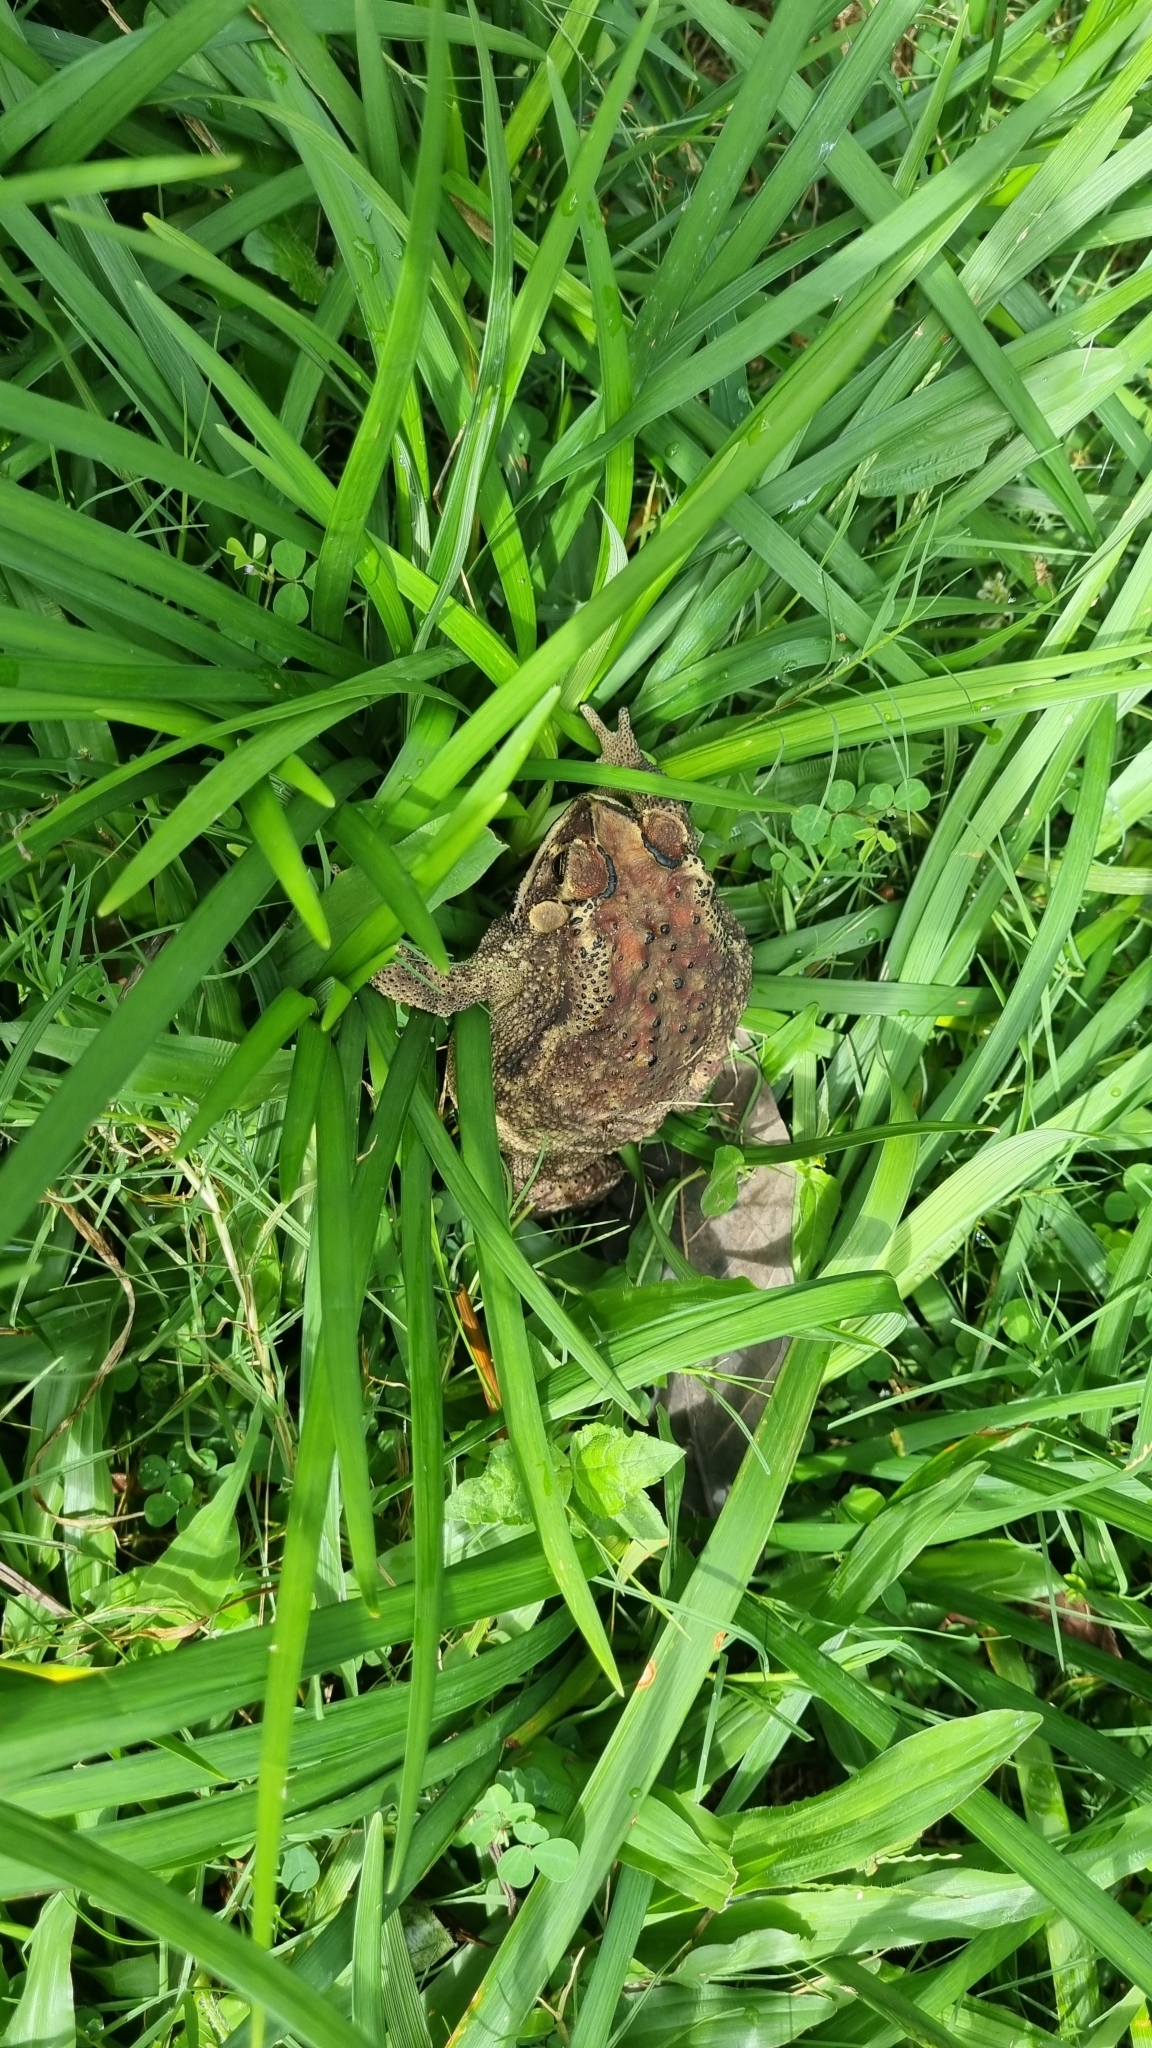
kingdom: Animalia
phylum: Chordata
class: Amphibia
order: Anura
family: Bufonidae
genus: Duttaphrynus
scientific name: Duttaphrynus melanostictus
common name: Common sunda toad
